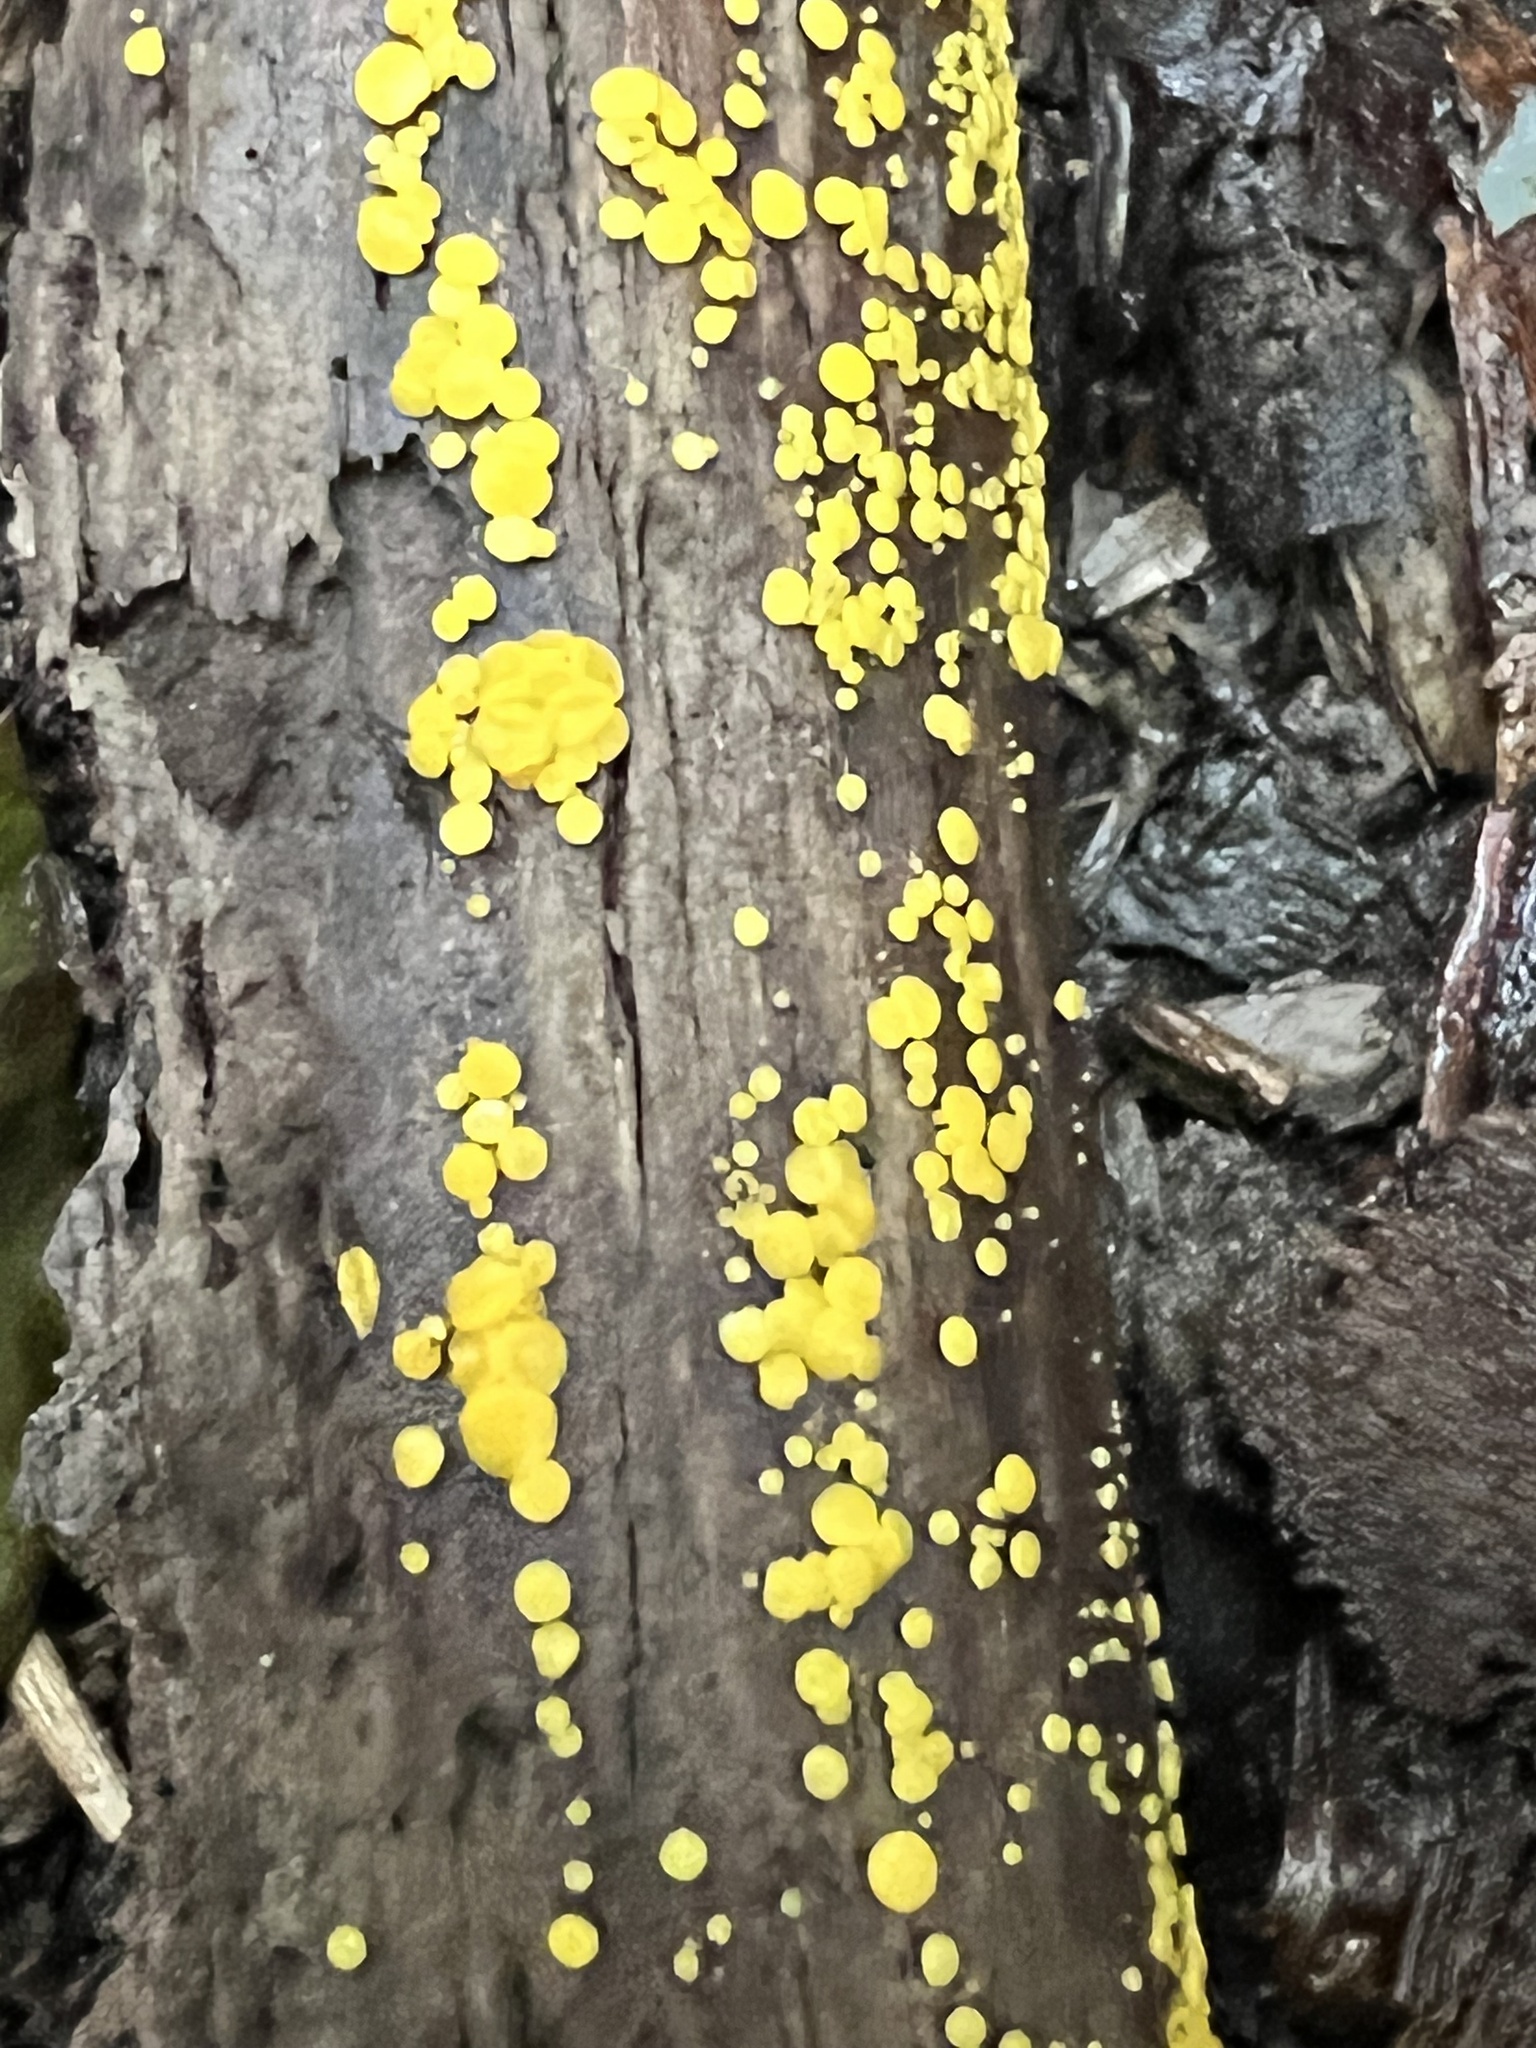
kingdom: Fungi
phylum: Ascomycota
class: Leotiomycetes
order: Helotiales
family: Pezizellaceae
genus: Calycina
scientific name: Calycina citrina
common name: Yellow fairy cups
